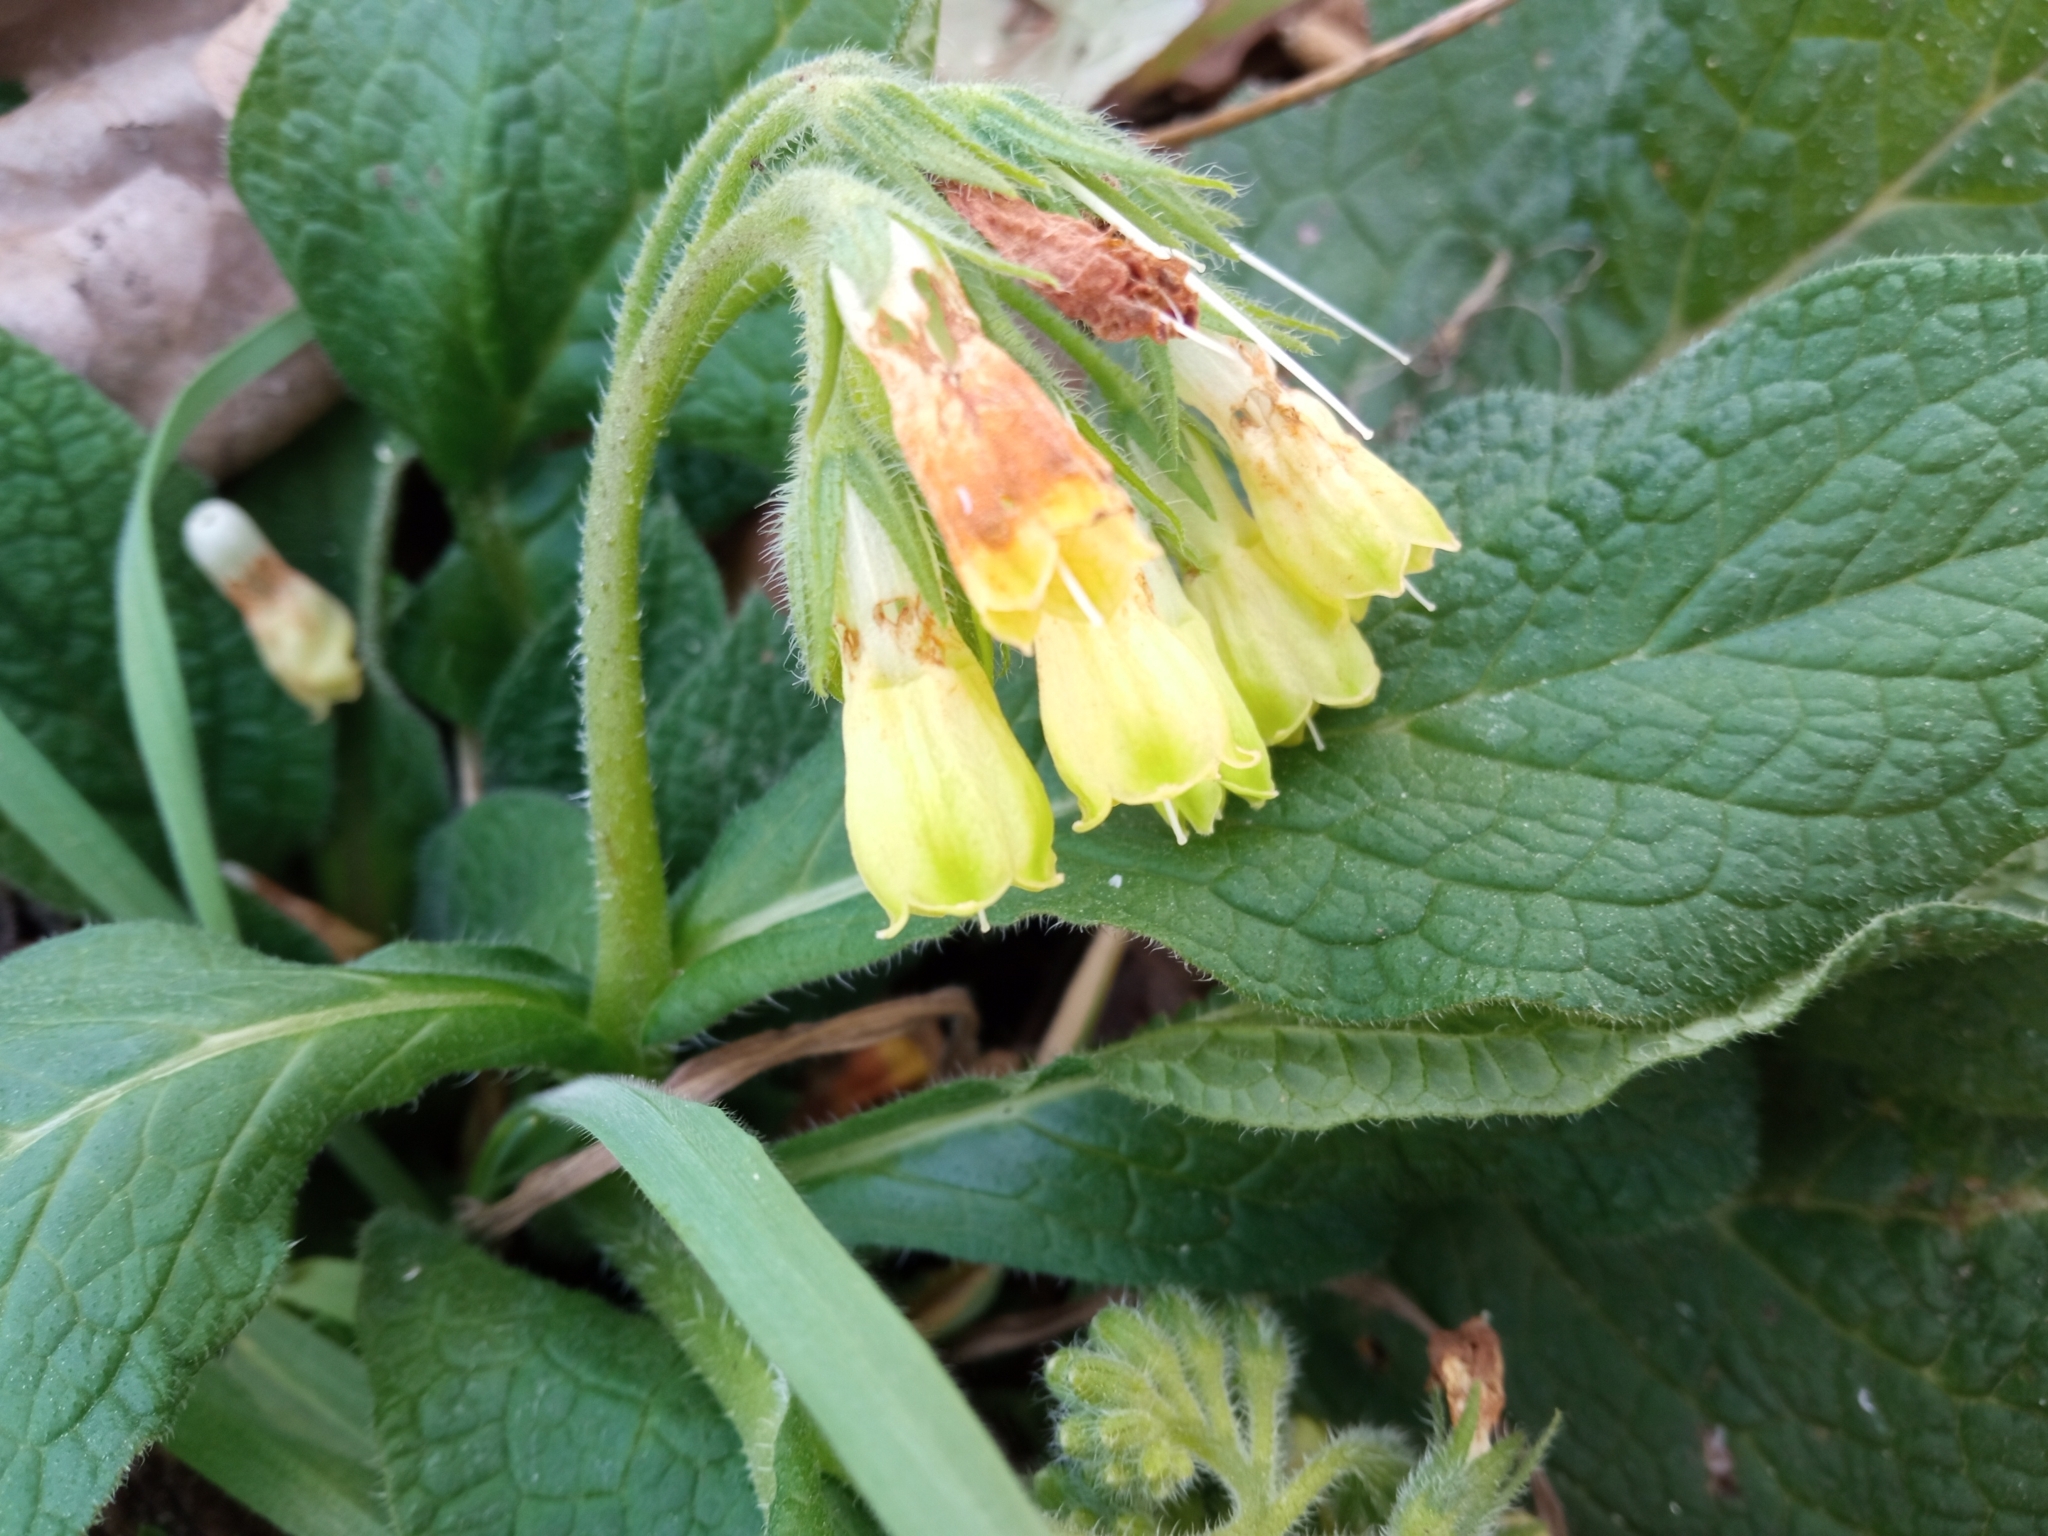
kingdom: Plantae
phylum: Tracheophyta
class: Magnoliopsida
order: Boraginales
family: Boraginaceae
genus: Symphytum
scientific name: Symphytum tuberosum
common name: Tuberous comfrey
